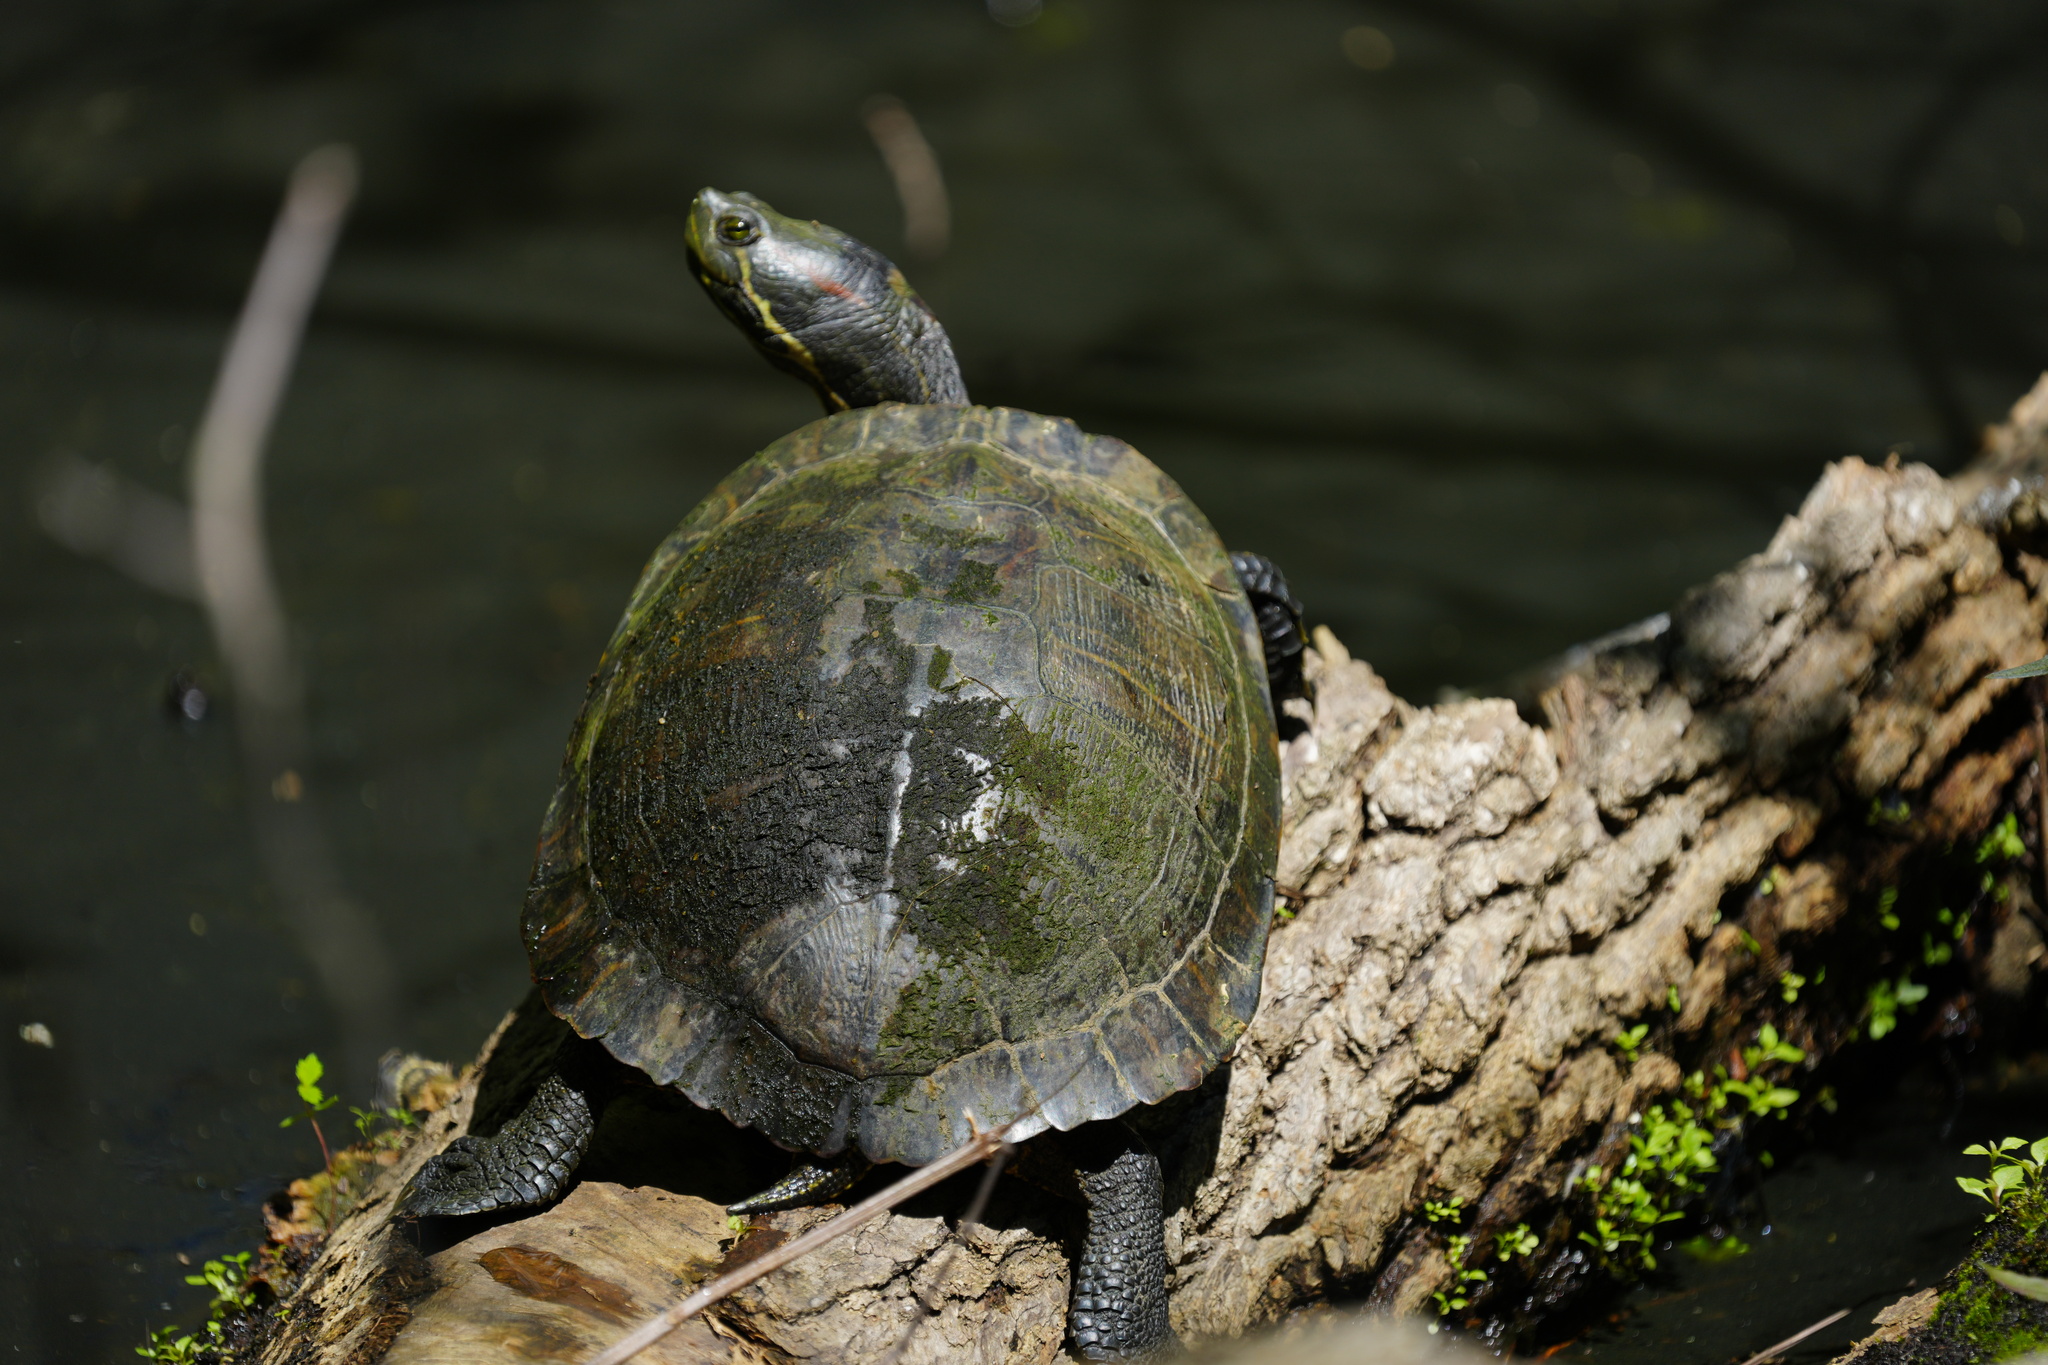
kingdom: Animalia
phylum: Chordata
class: Testudines
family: Emydidae
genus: Trachemys
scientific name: Trachemys scripta
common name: Slider
